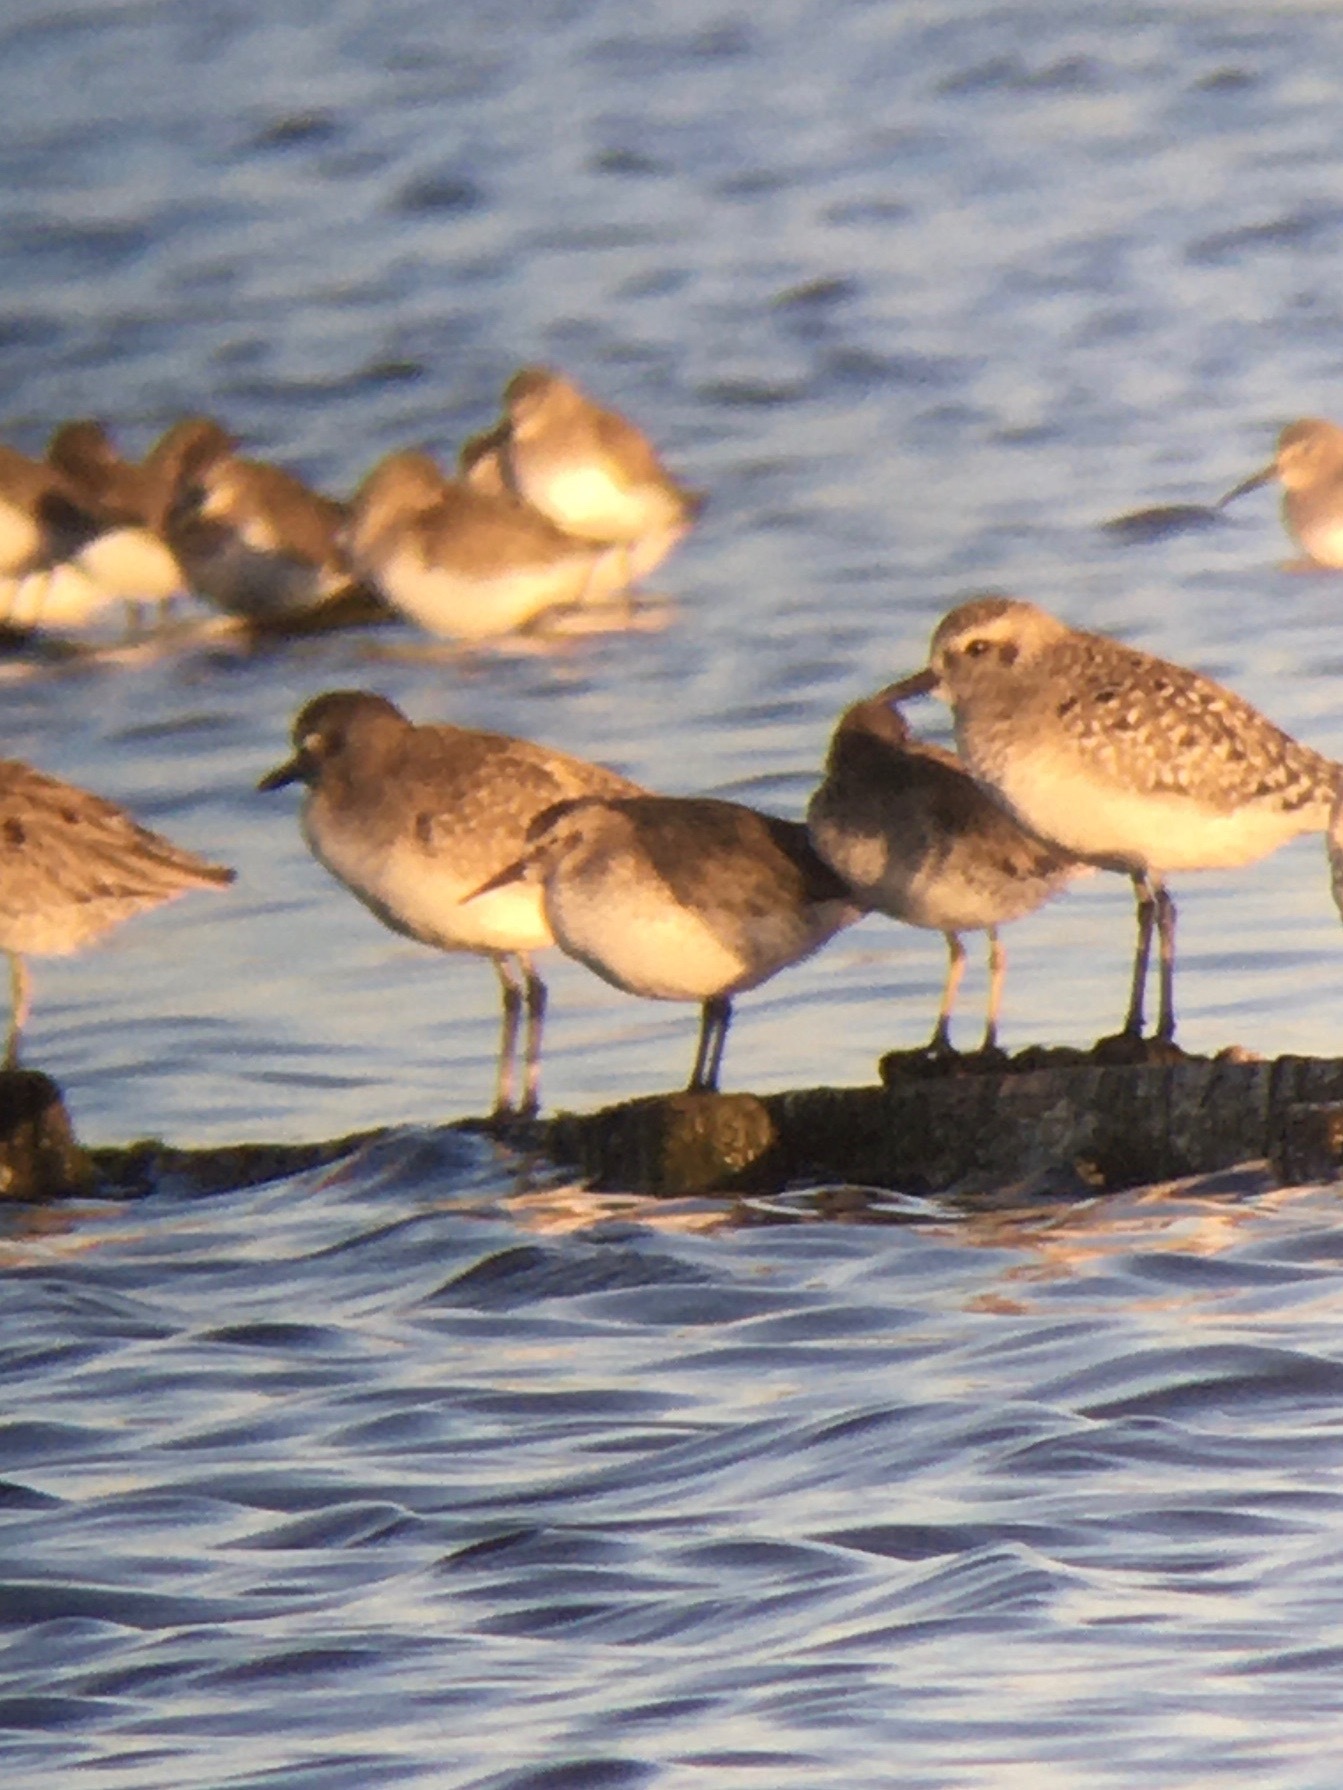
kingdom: Animalia
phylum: Chordata
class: Aves
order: Charadriiformes
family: Scolopacidae
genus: Calidris
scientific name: Calidris alpina
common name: Dunlin
